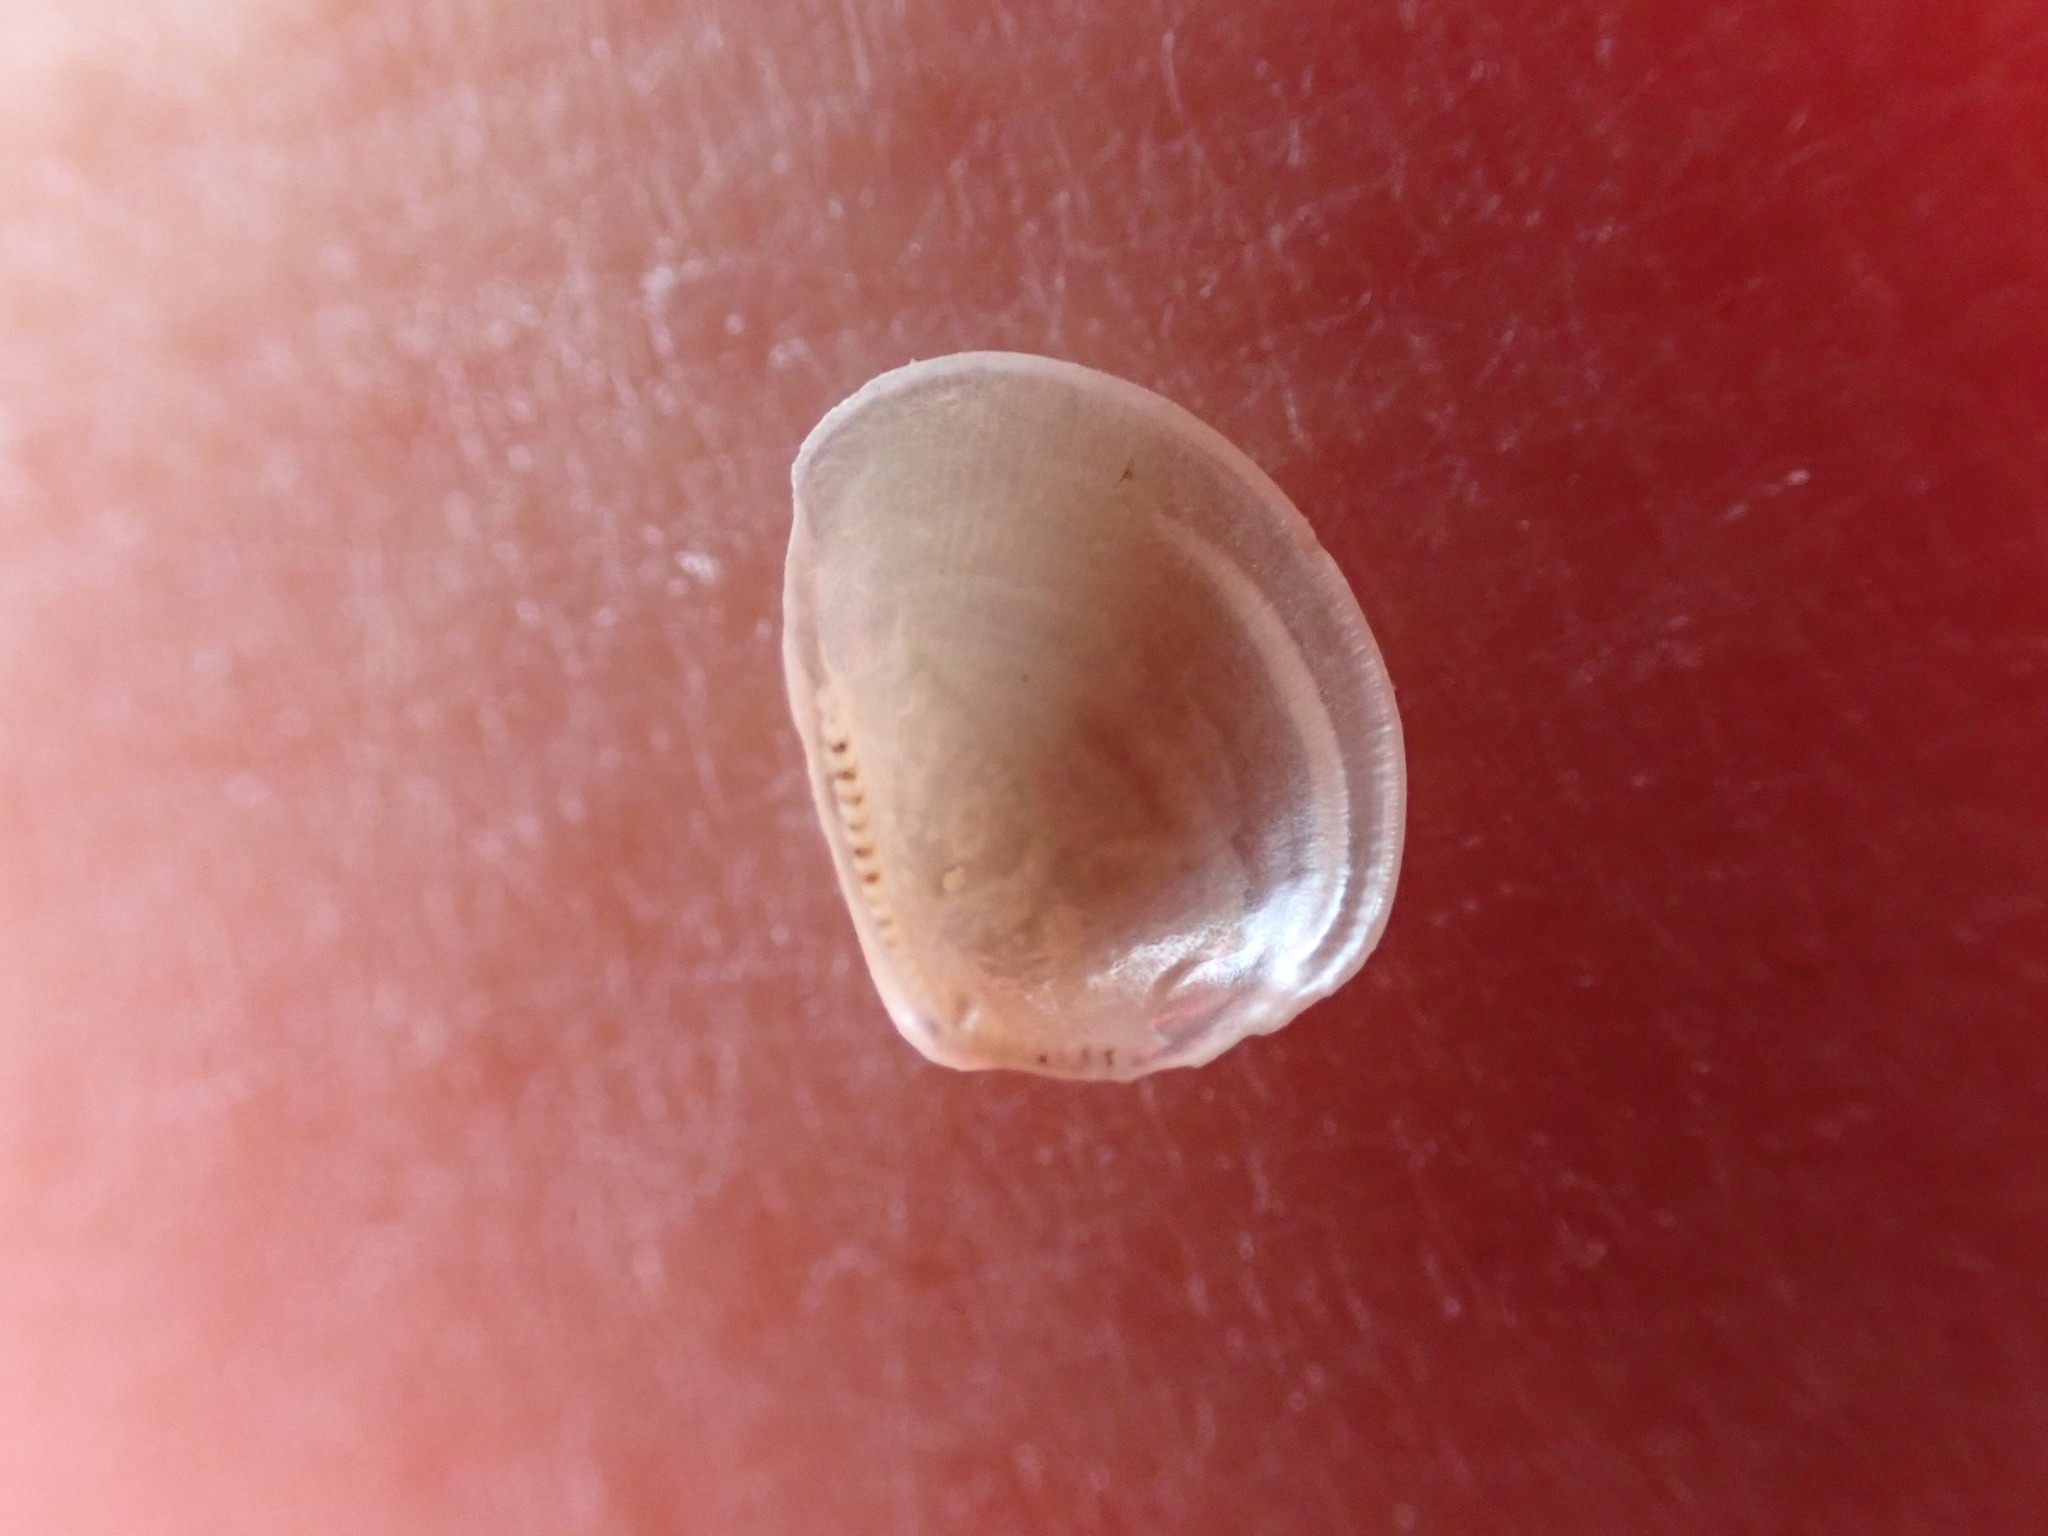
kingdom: Animalia
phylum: Mollusca
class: Bivalvia
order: Nuculida
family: Nuculidae
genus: Linucula
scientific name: Linucula hartvigiana
